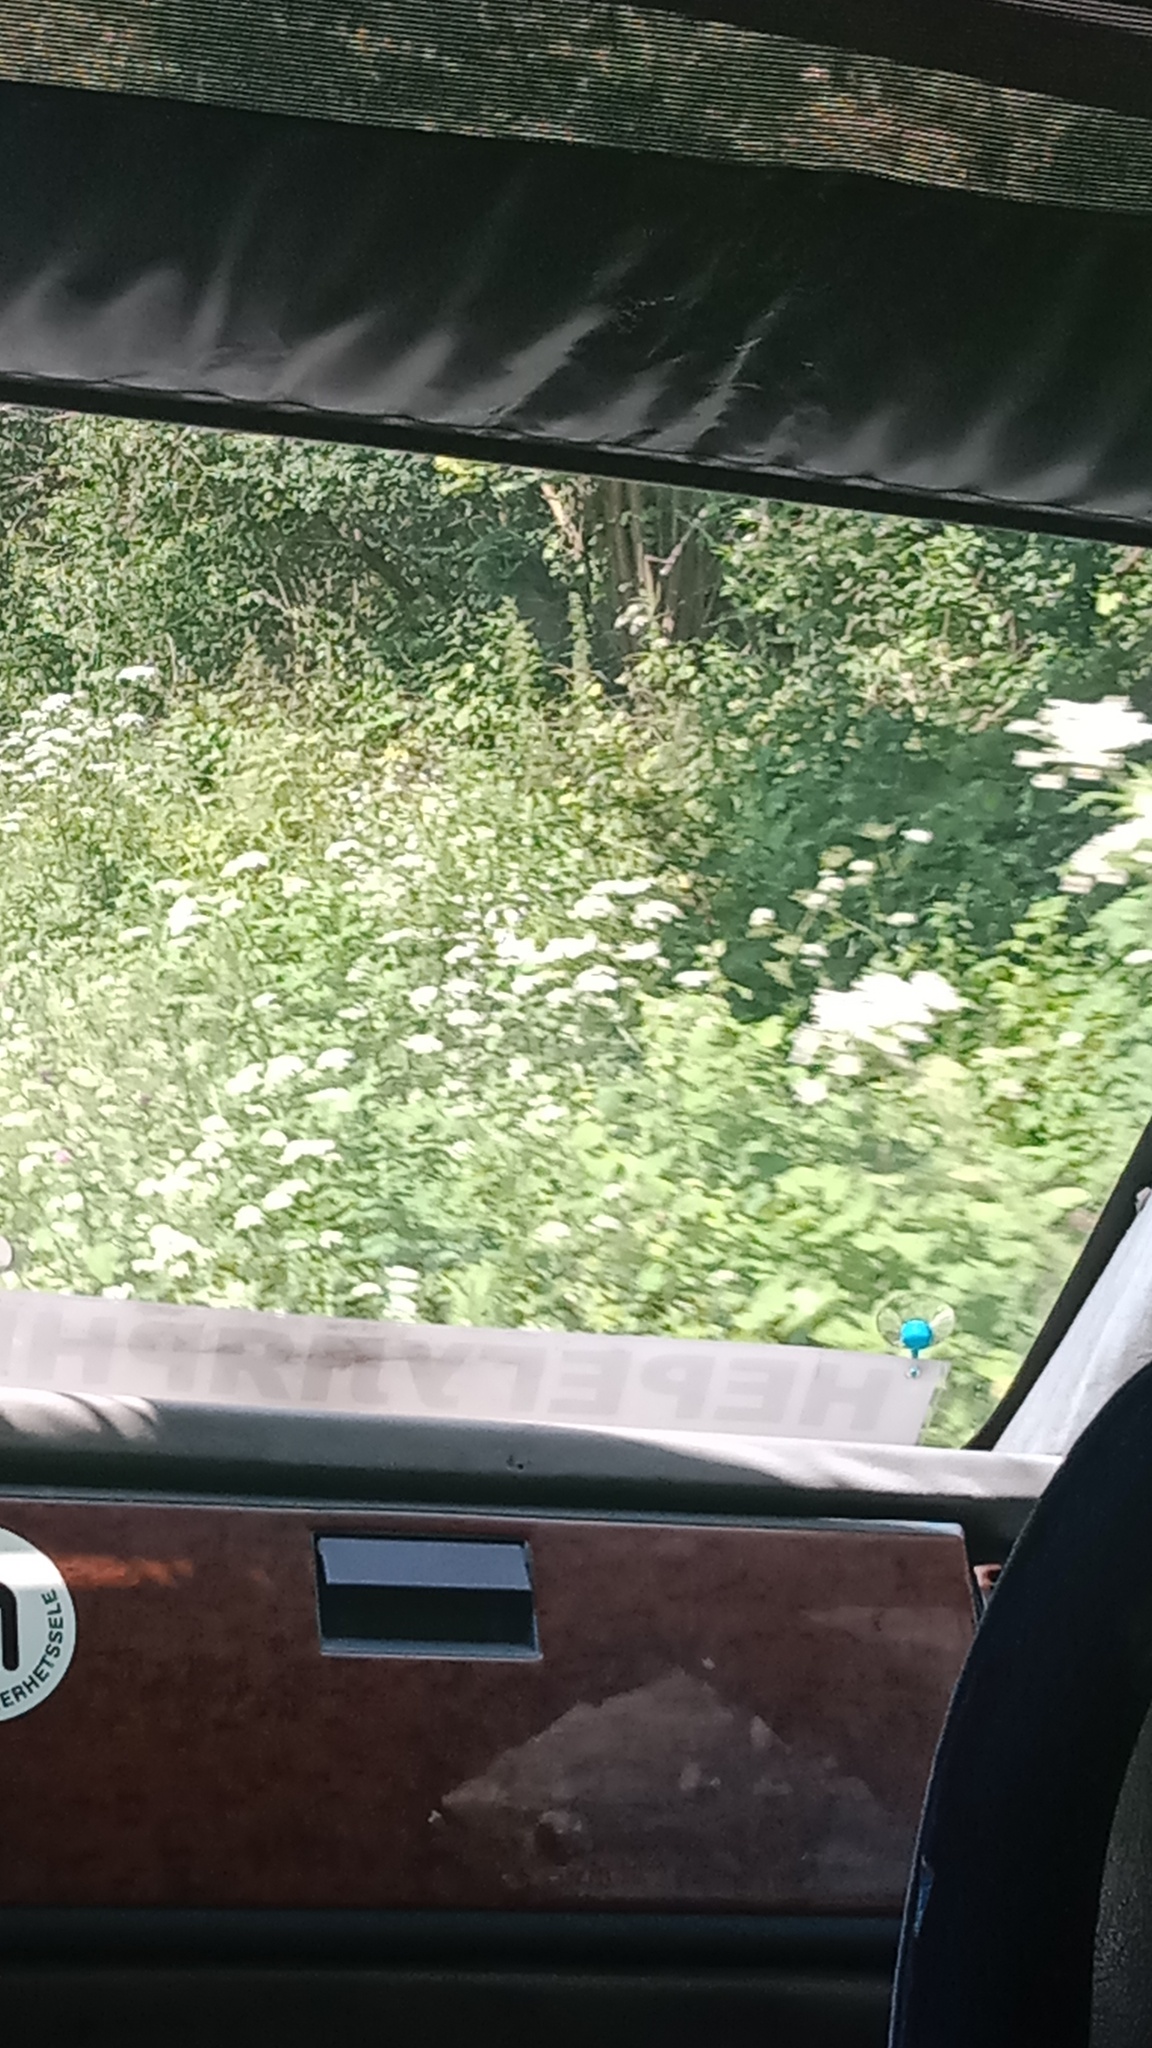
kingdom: Plantae
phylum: Tracheophyta
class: Magnoliopsida
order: Apiales
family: Apiaceae
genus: Heracleum
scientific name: Heracleum sosnowskyi
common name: Sosnowsky's hogweed
